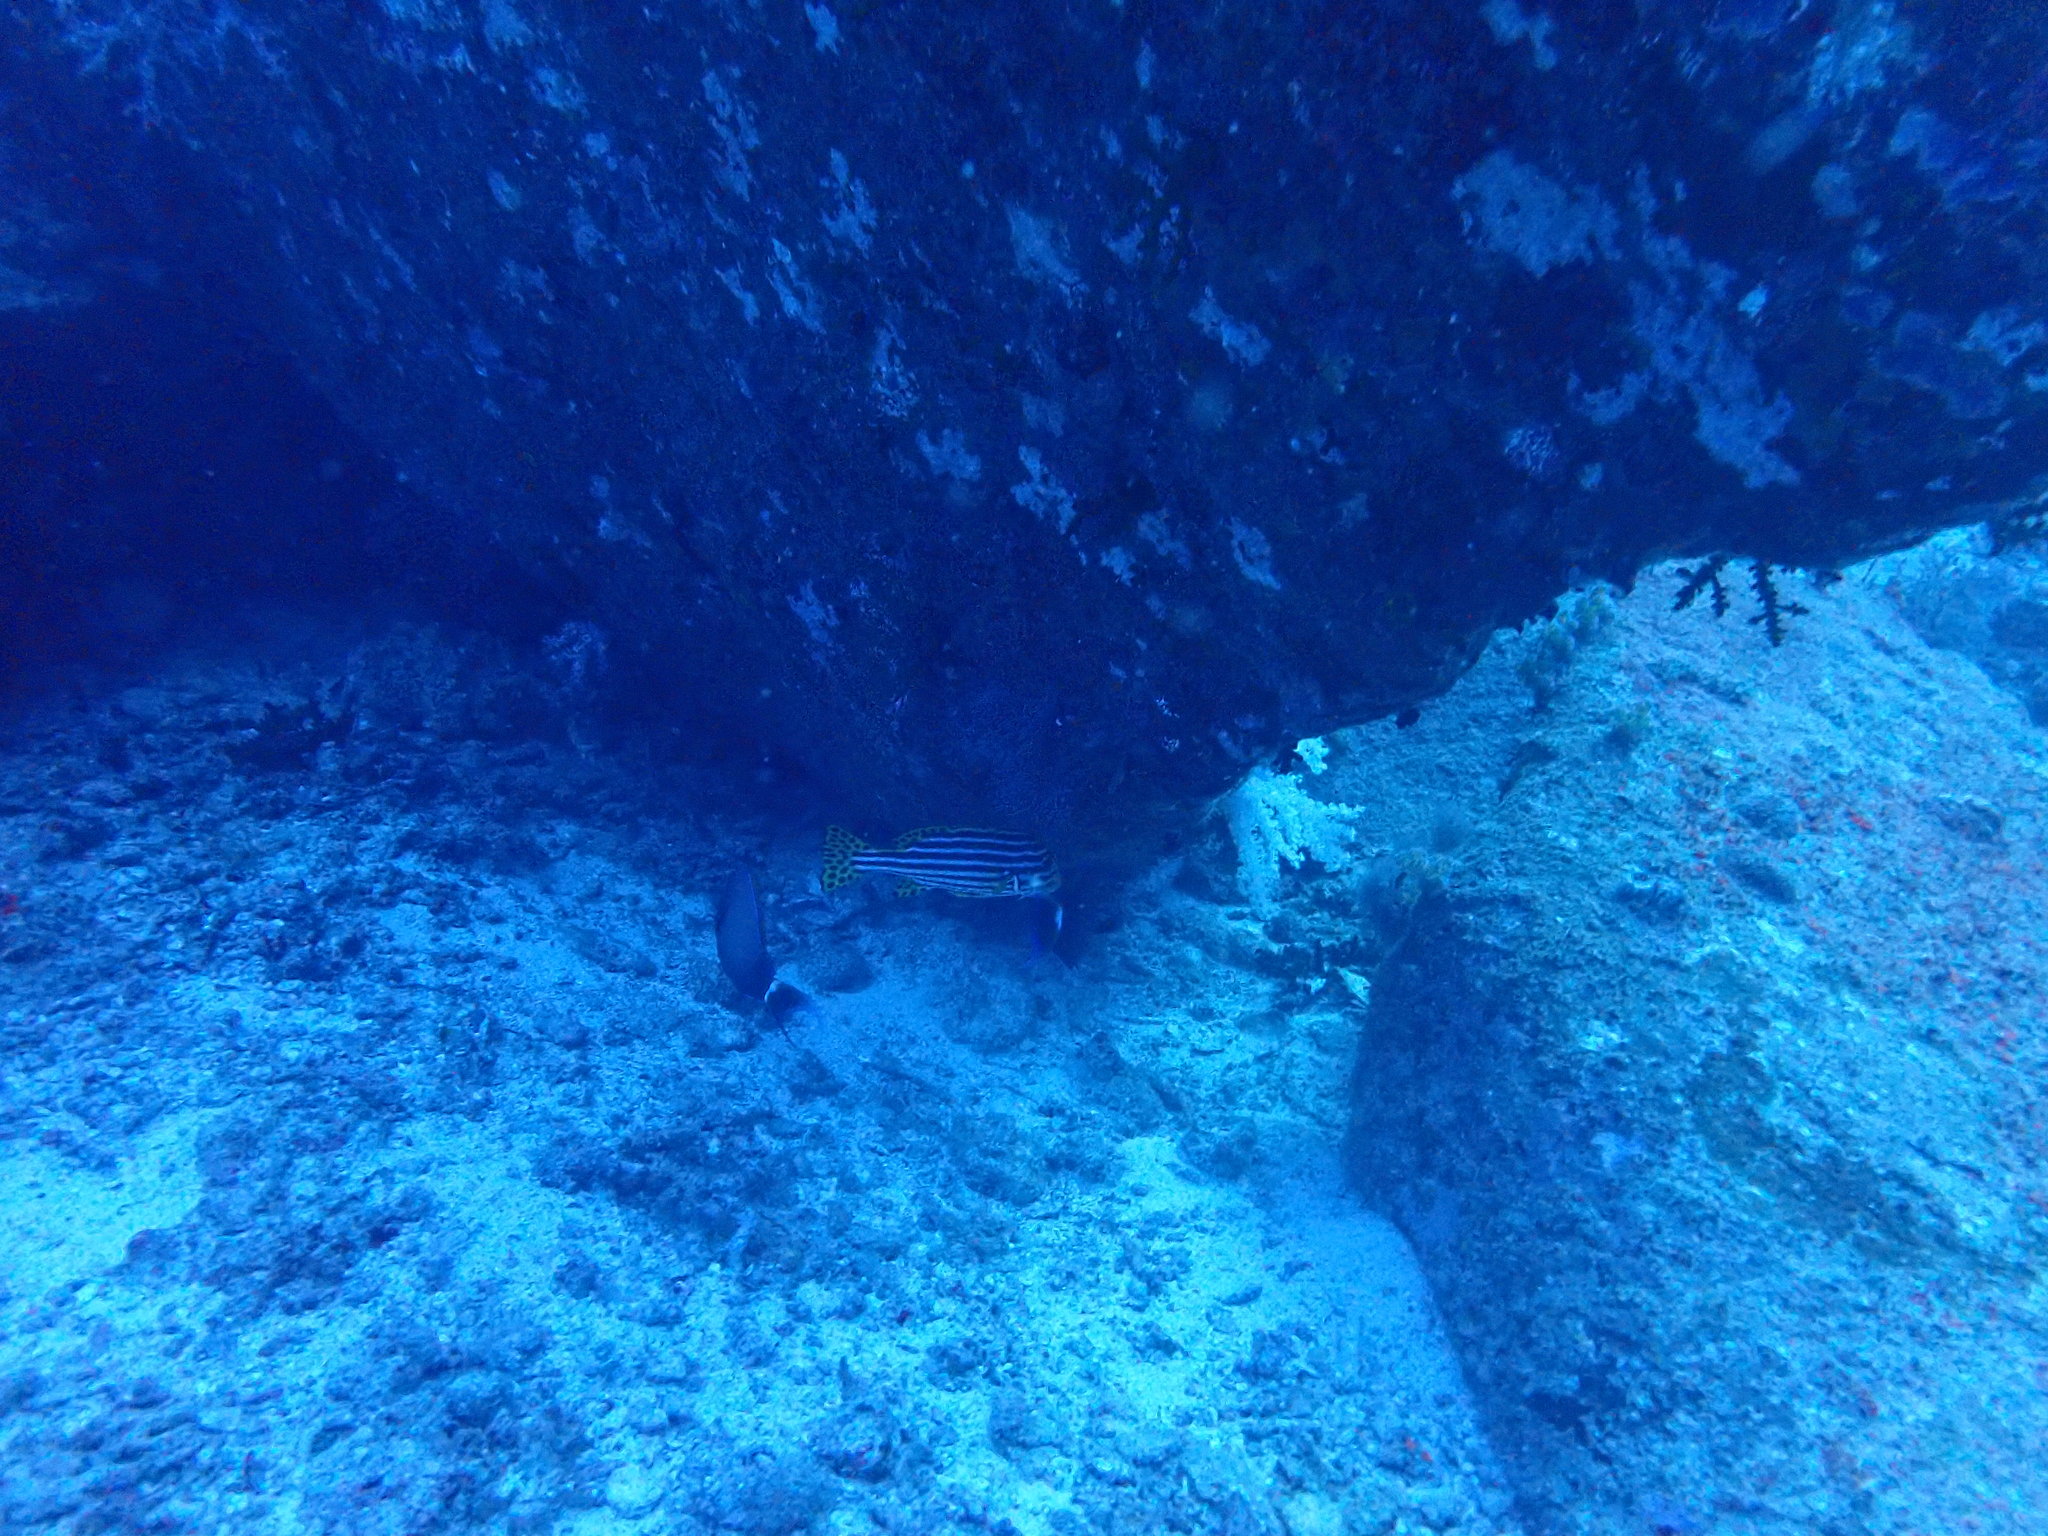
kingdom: Animalia
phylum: Chordata
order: Perciformes
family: Haemulidae
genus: Plectorhinchus
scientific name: Plectorhinchus vittatus
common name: Oriental sweetlips
